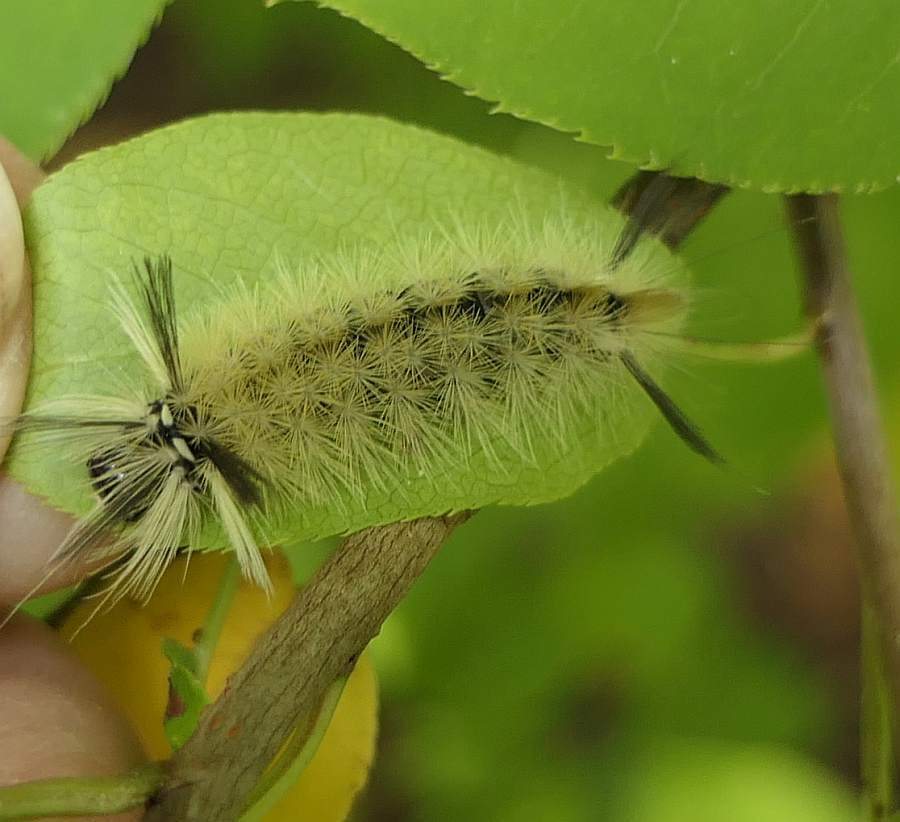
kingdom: Animalia
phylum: Arthropoda
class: Insecta
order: Lepidoptera
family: Erebidae
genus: Halysidota
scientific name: Halysidota tessellaris
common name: Banded tussock moth
